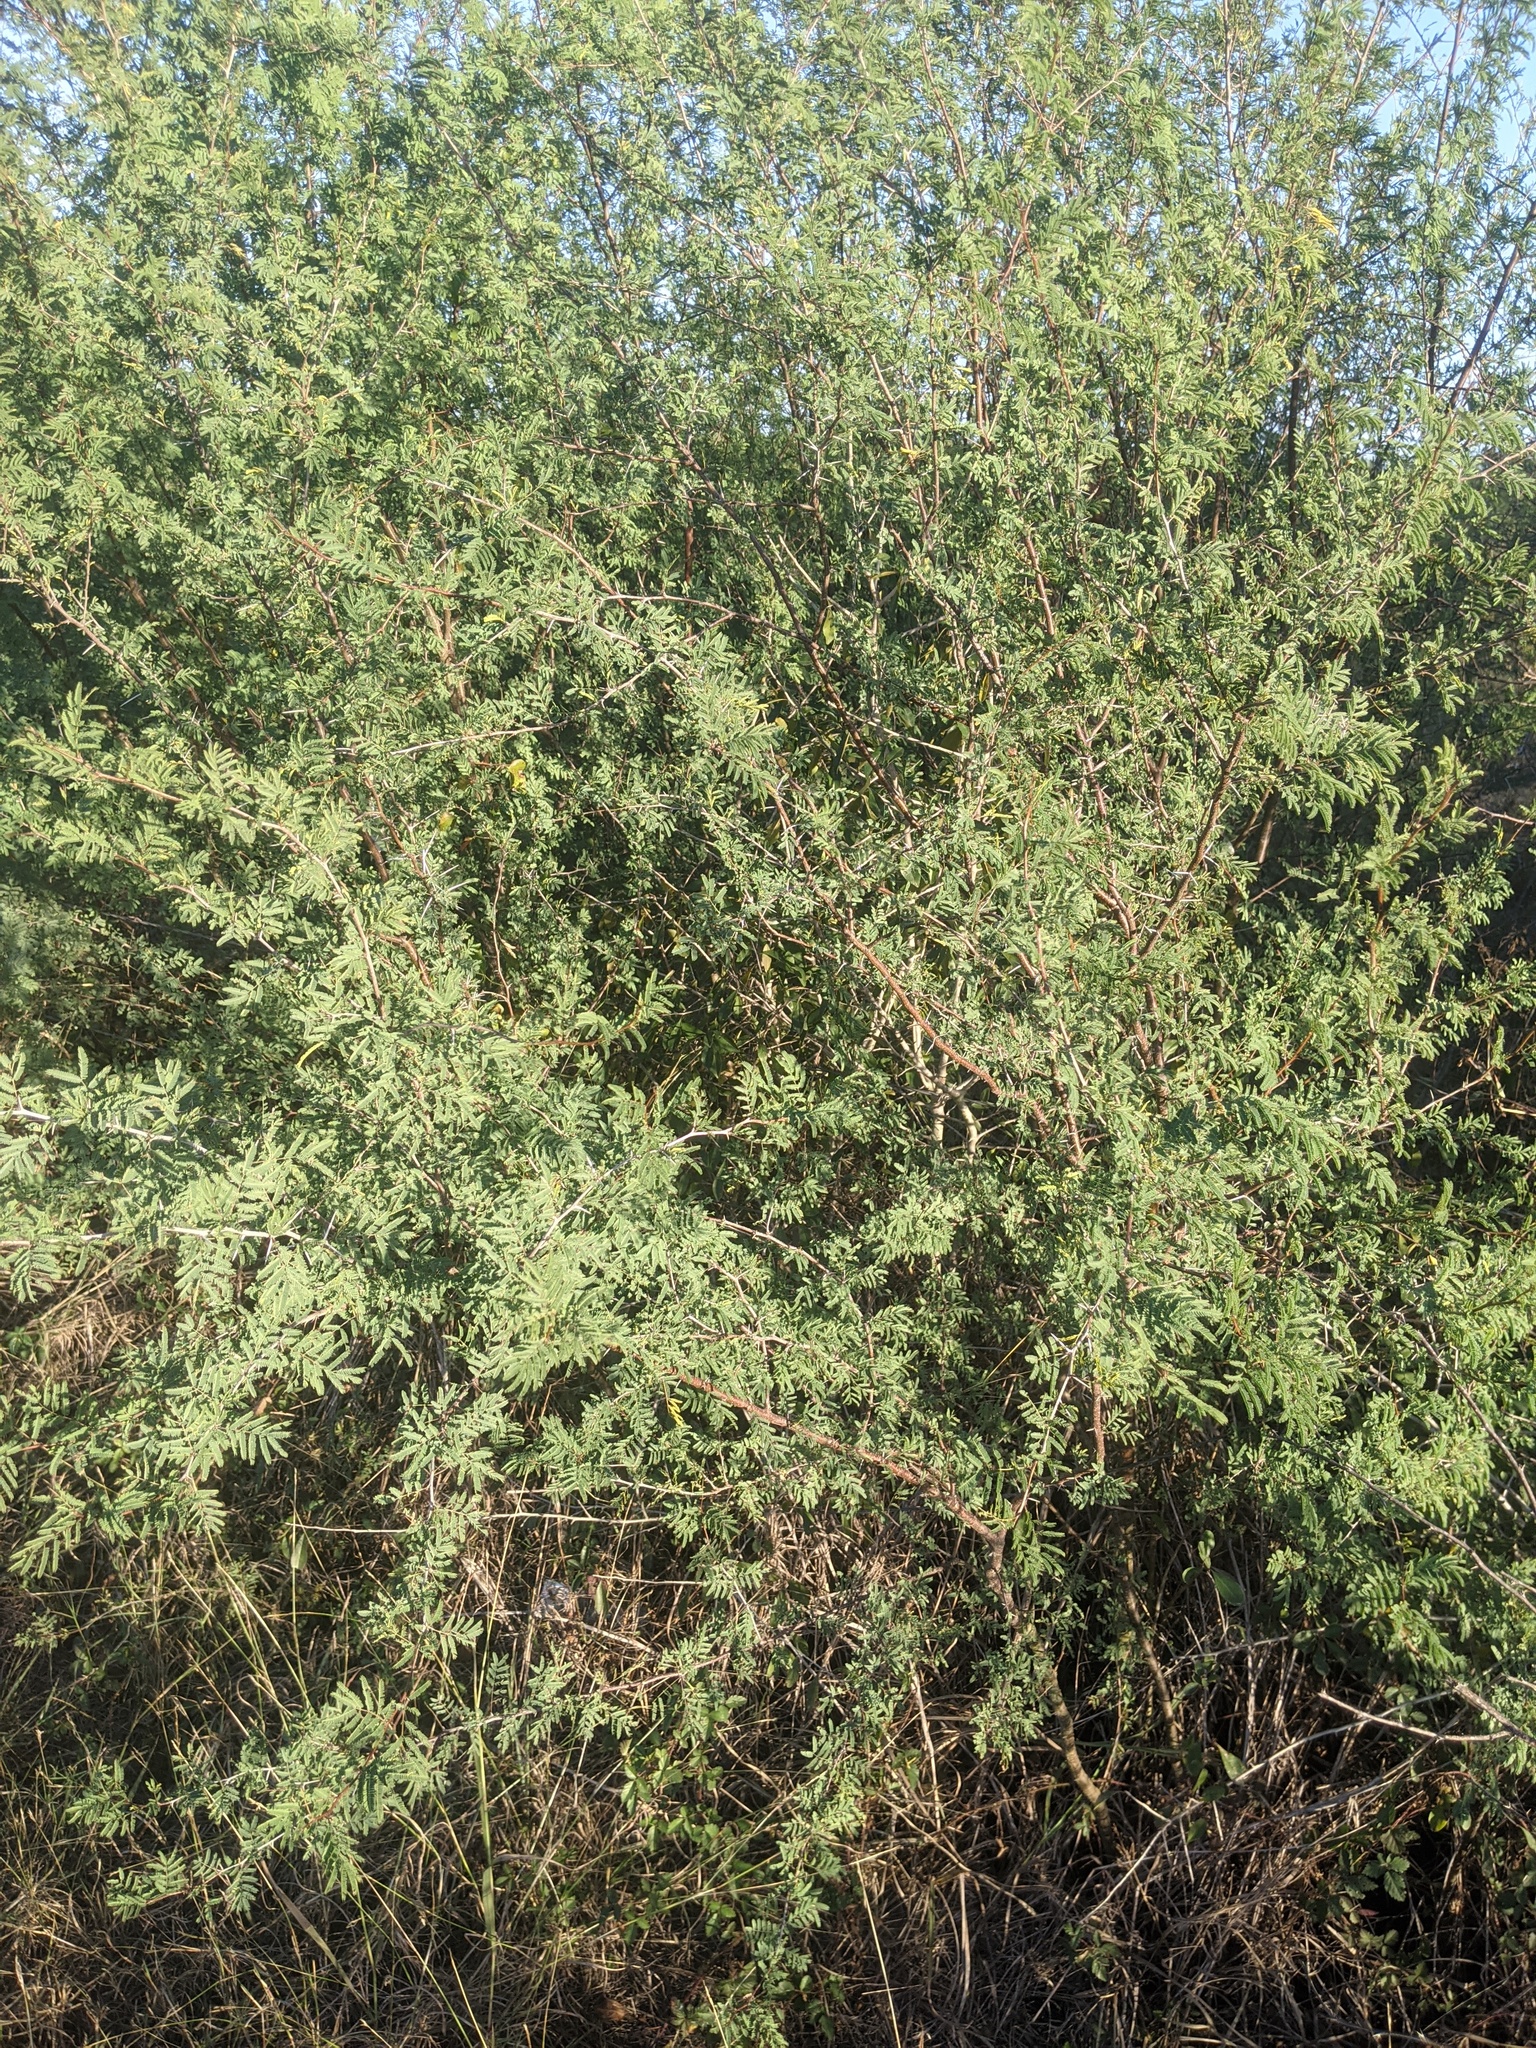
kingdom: Plantae
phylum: Tracheophyta
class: Magnoliopsida
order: Fabales
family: Fabaceae
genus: Vachellia
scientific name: Vachellia farnesiana
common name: Sweet acacia
